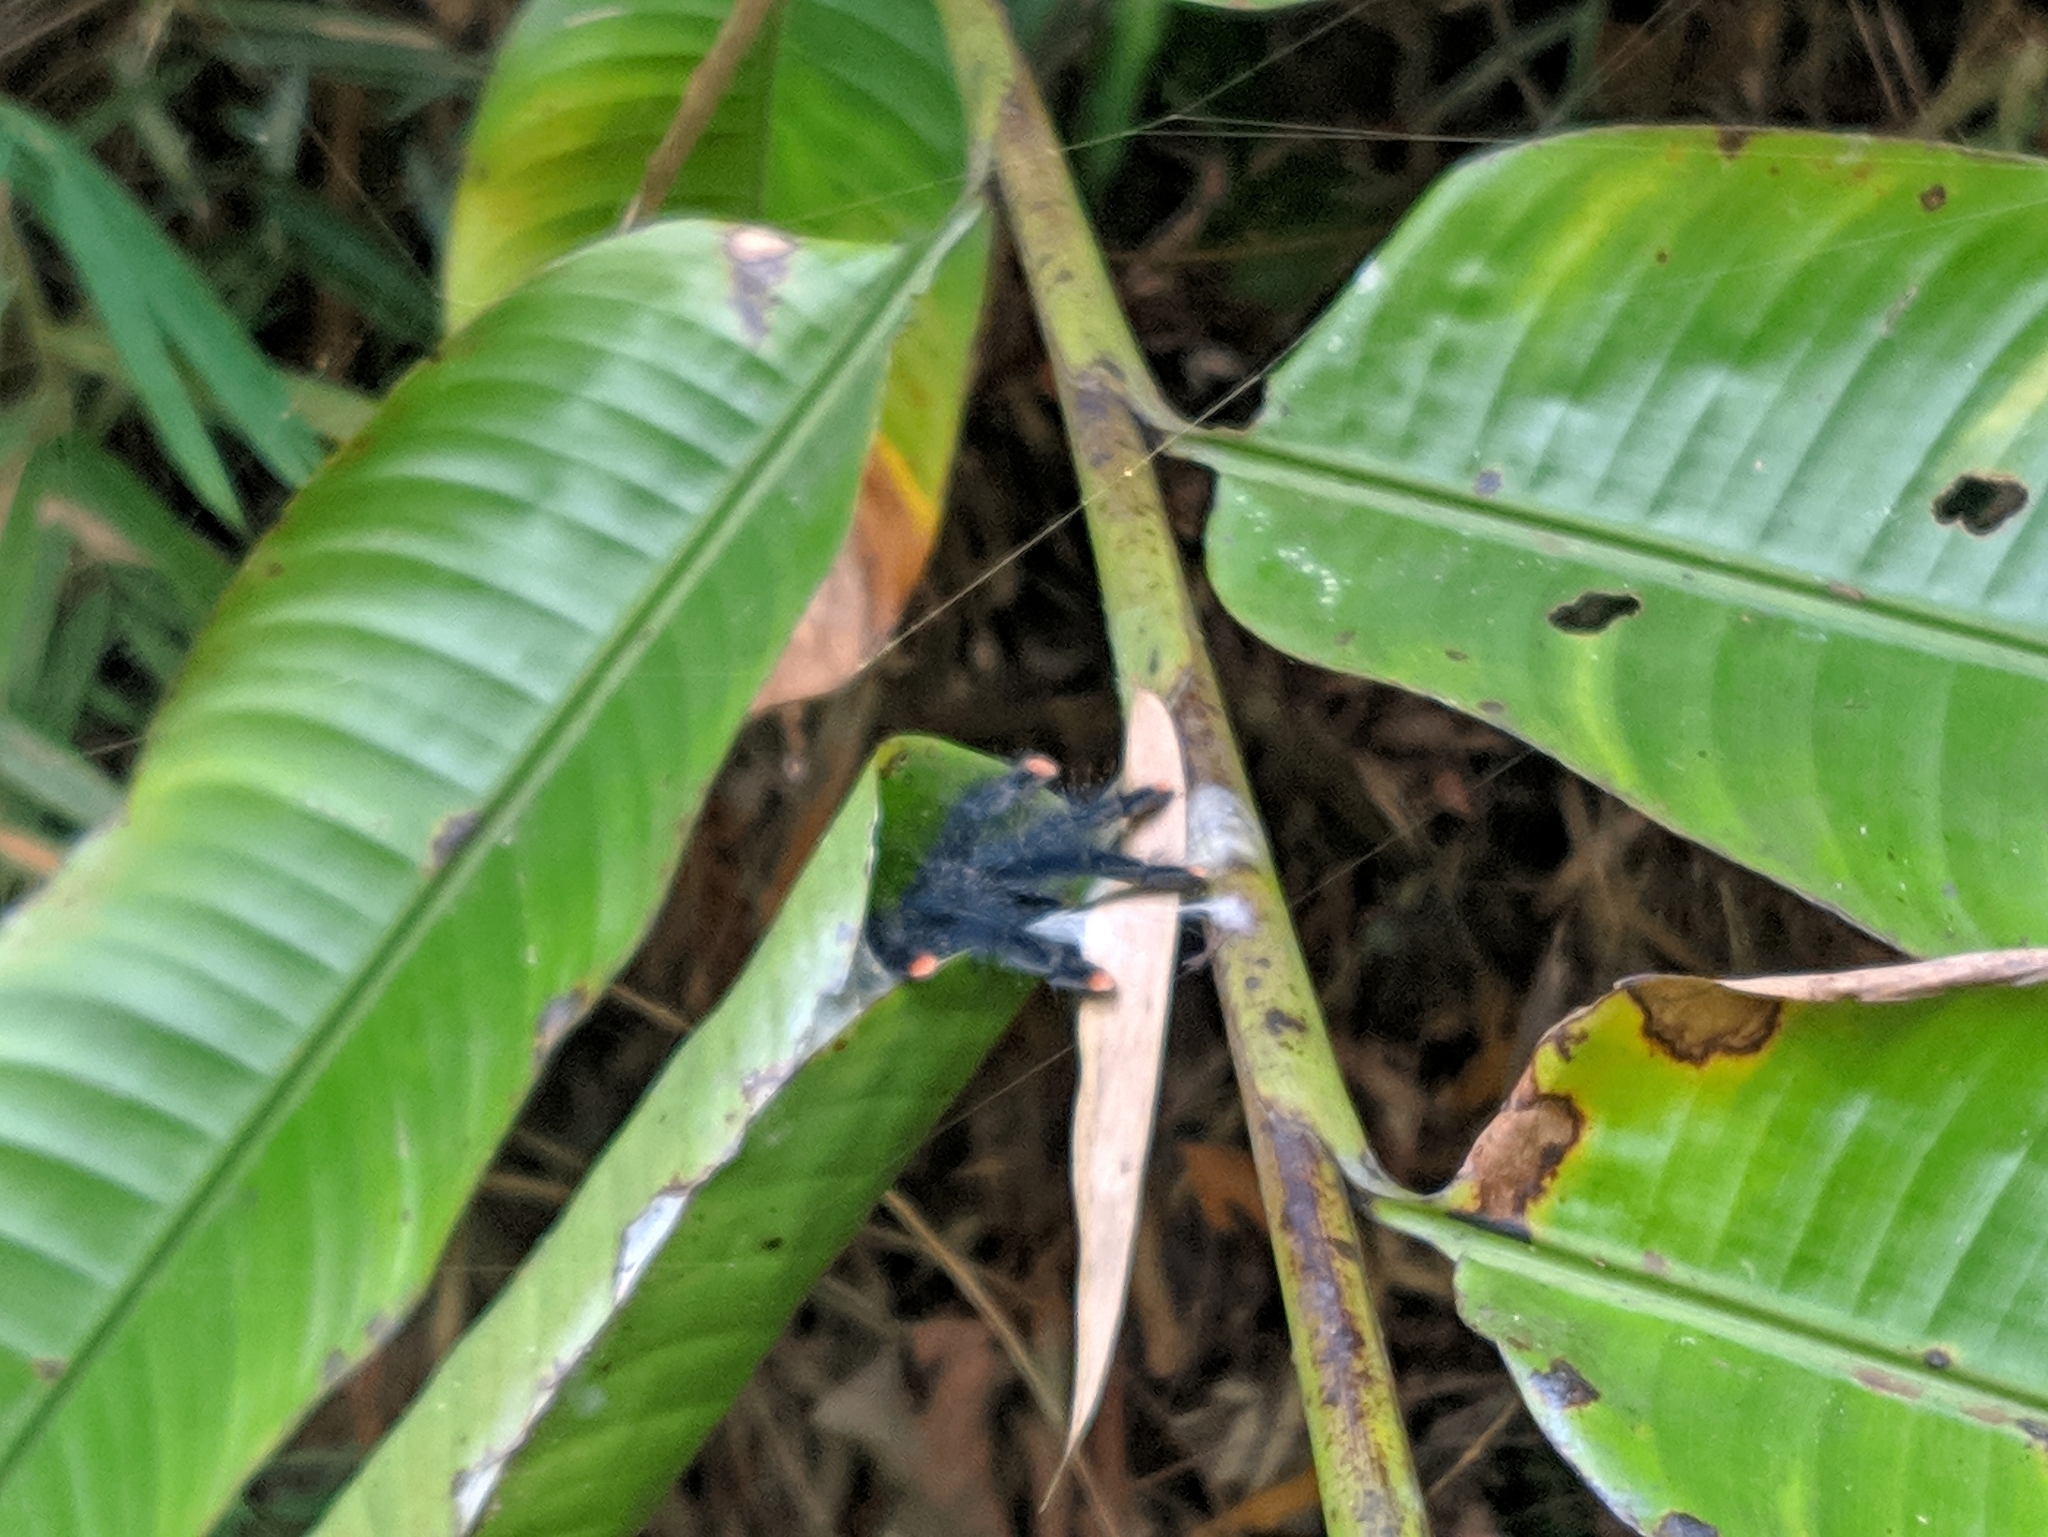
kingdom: Animalia
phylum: Arthropoda
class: Arachnida
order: Araneae
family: Theraphosidae
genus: Avicularia
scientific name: Avicularia avicularia
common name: Tarantula spiders
